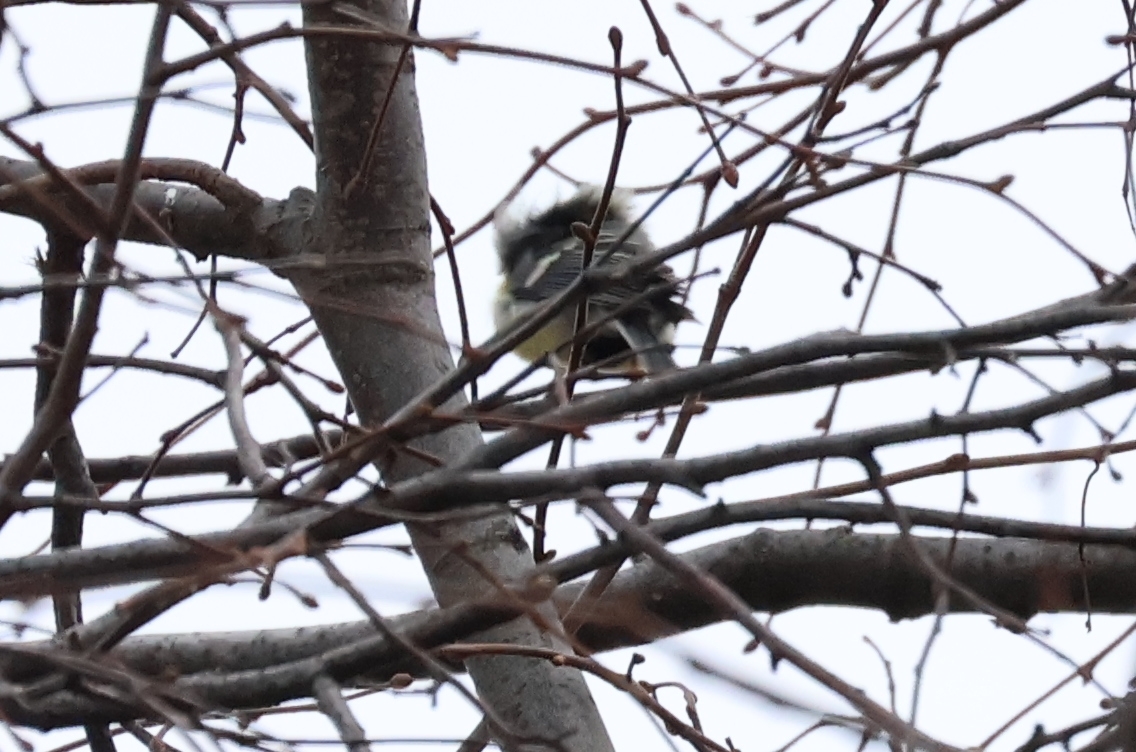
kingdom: Animalia
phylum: Chordata
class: Aves
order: Passeriformes
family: Paridae
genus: Parus
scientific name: Parus major
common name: Great tit
